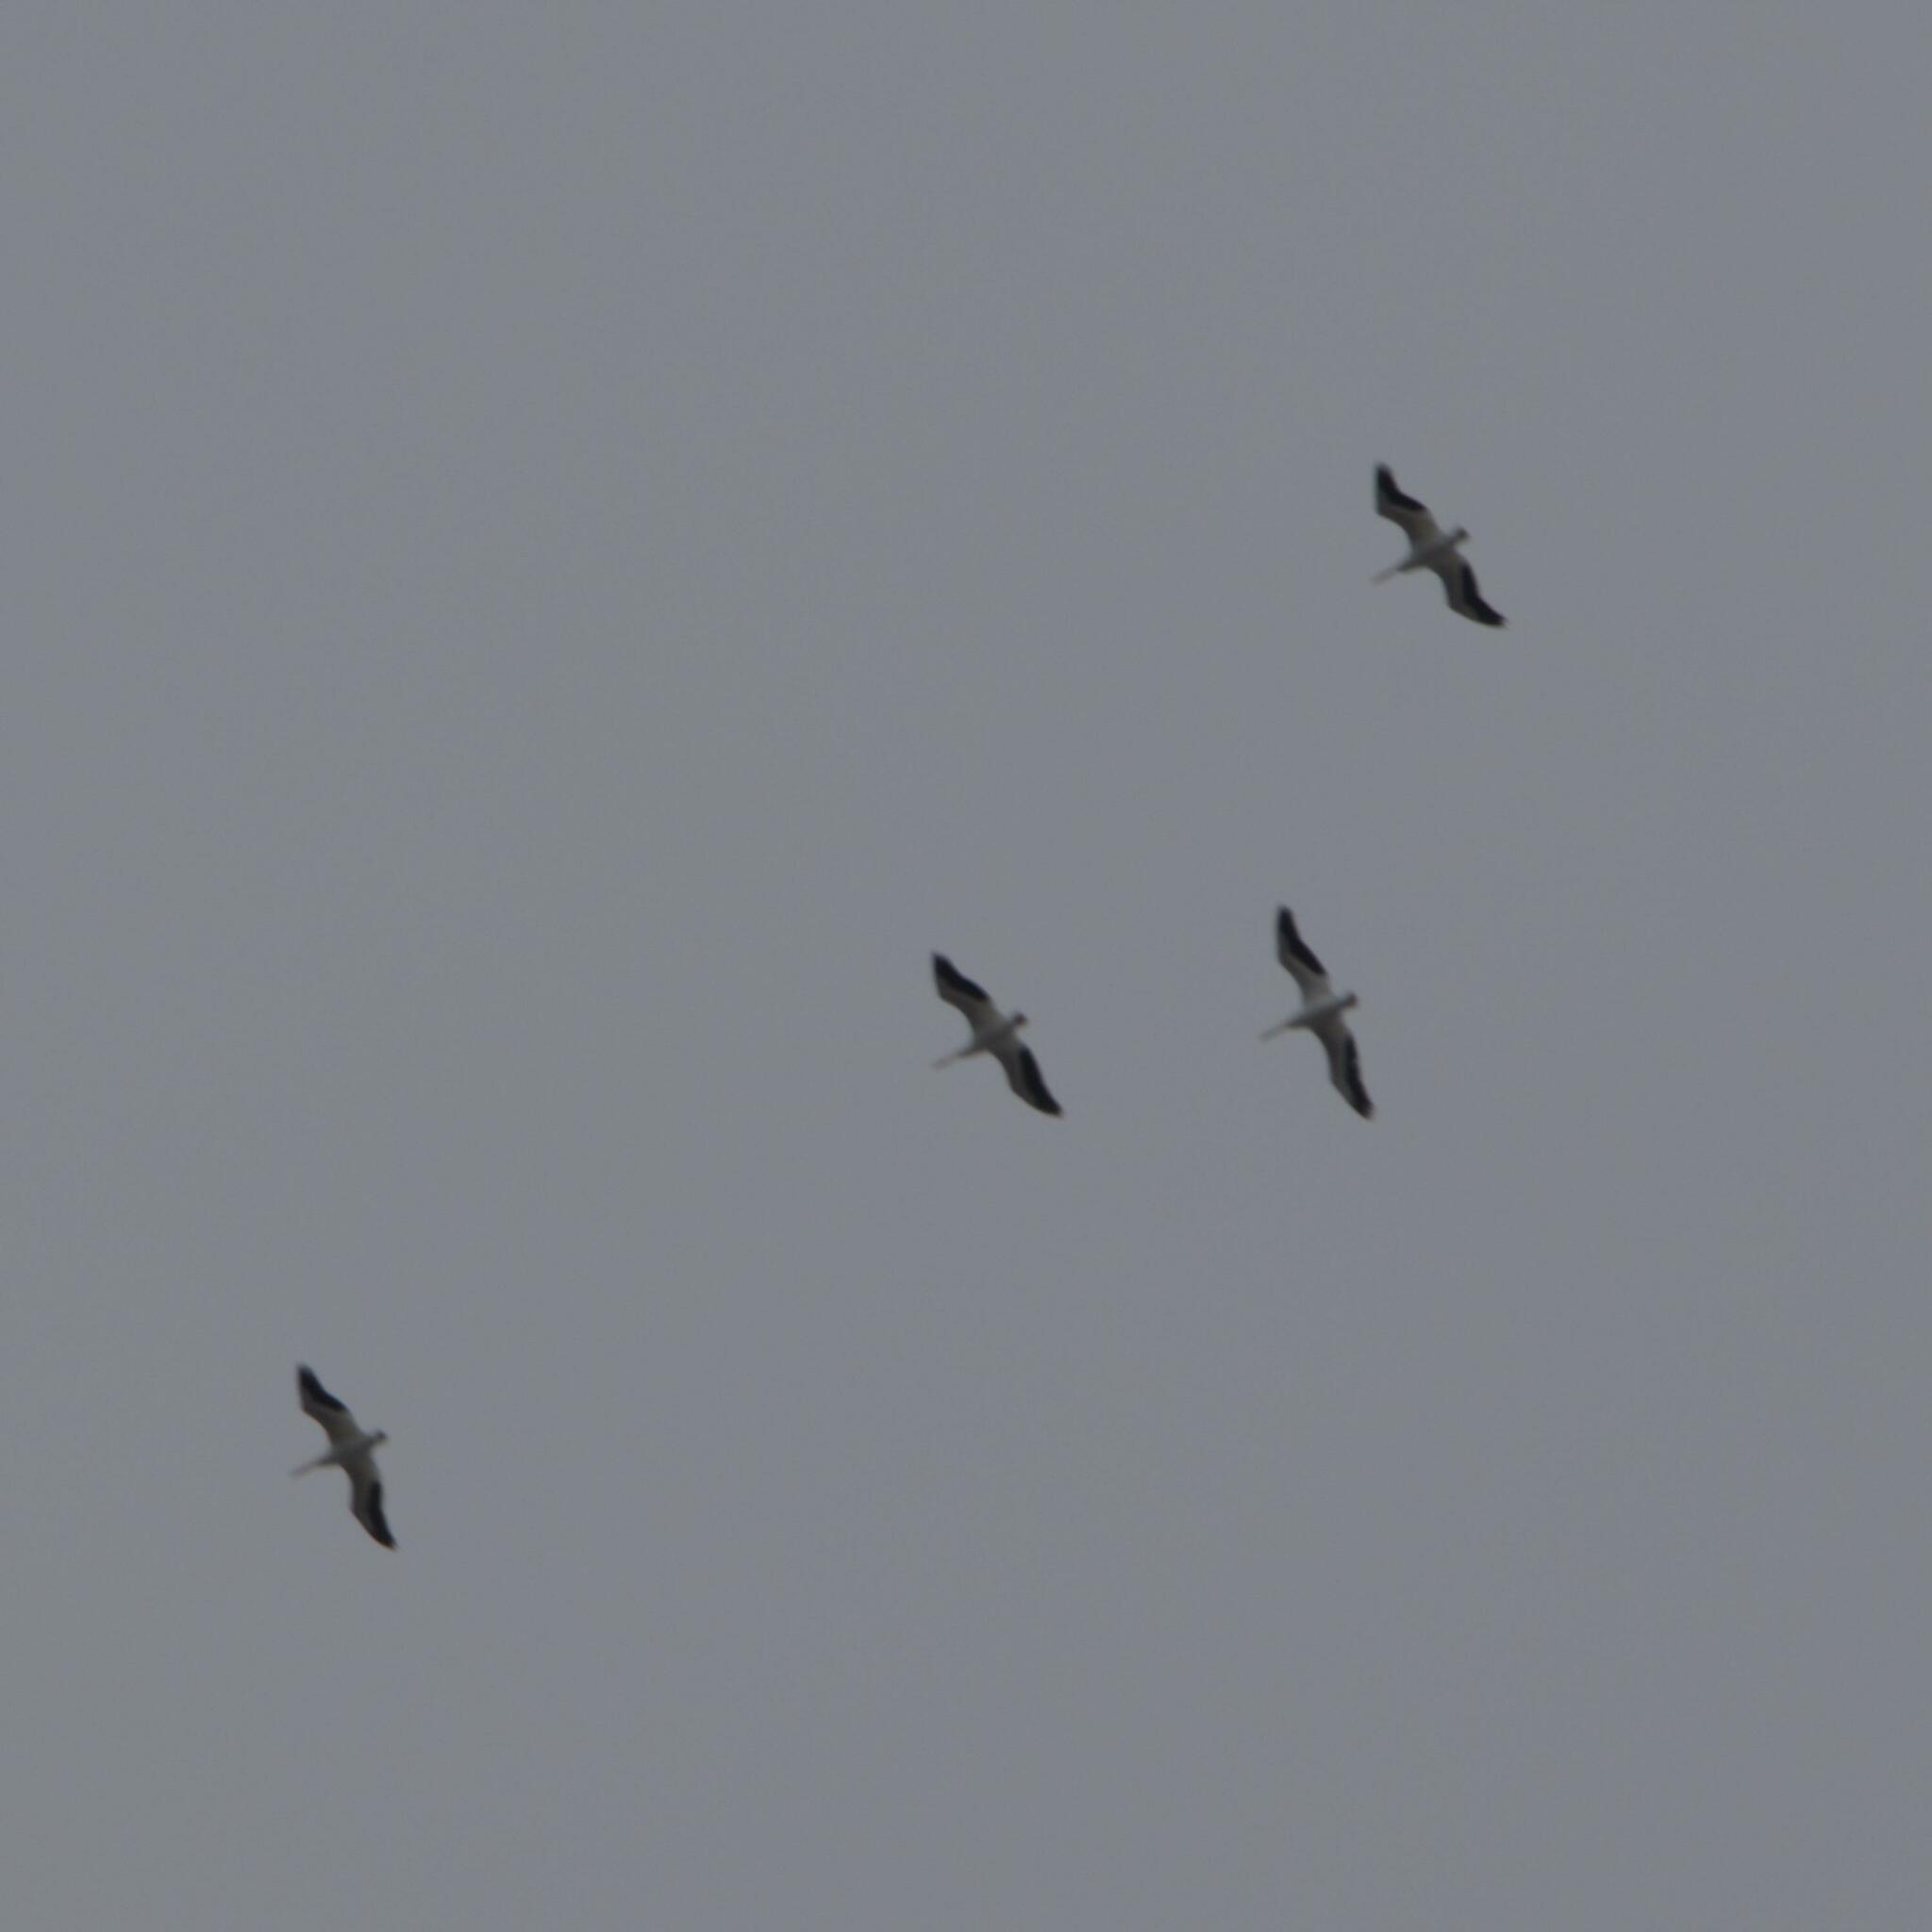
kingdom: Animalia
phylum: Chordata
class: Aves
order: Pelecaniformes
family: Pelecanidae
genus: Pelecanus
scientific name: Pelecanus erythrorhynchos
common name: American white pelican
